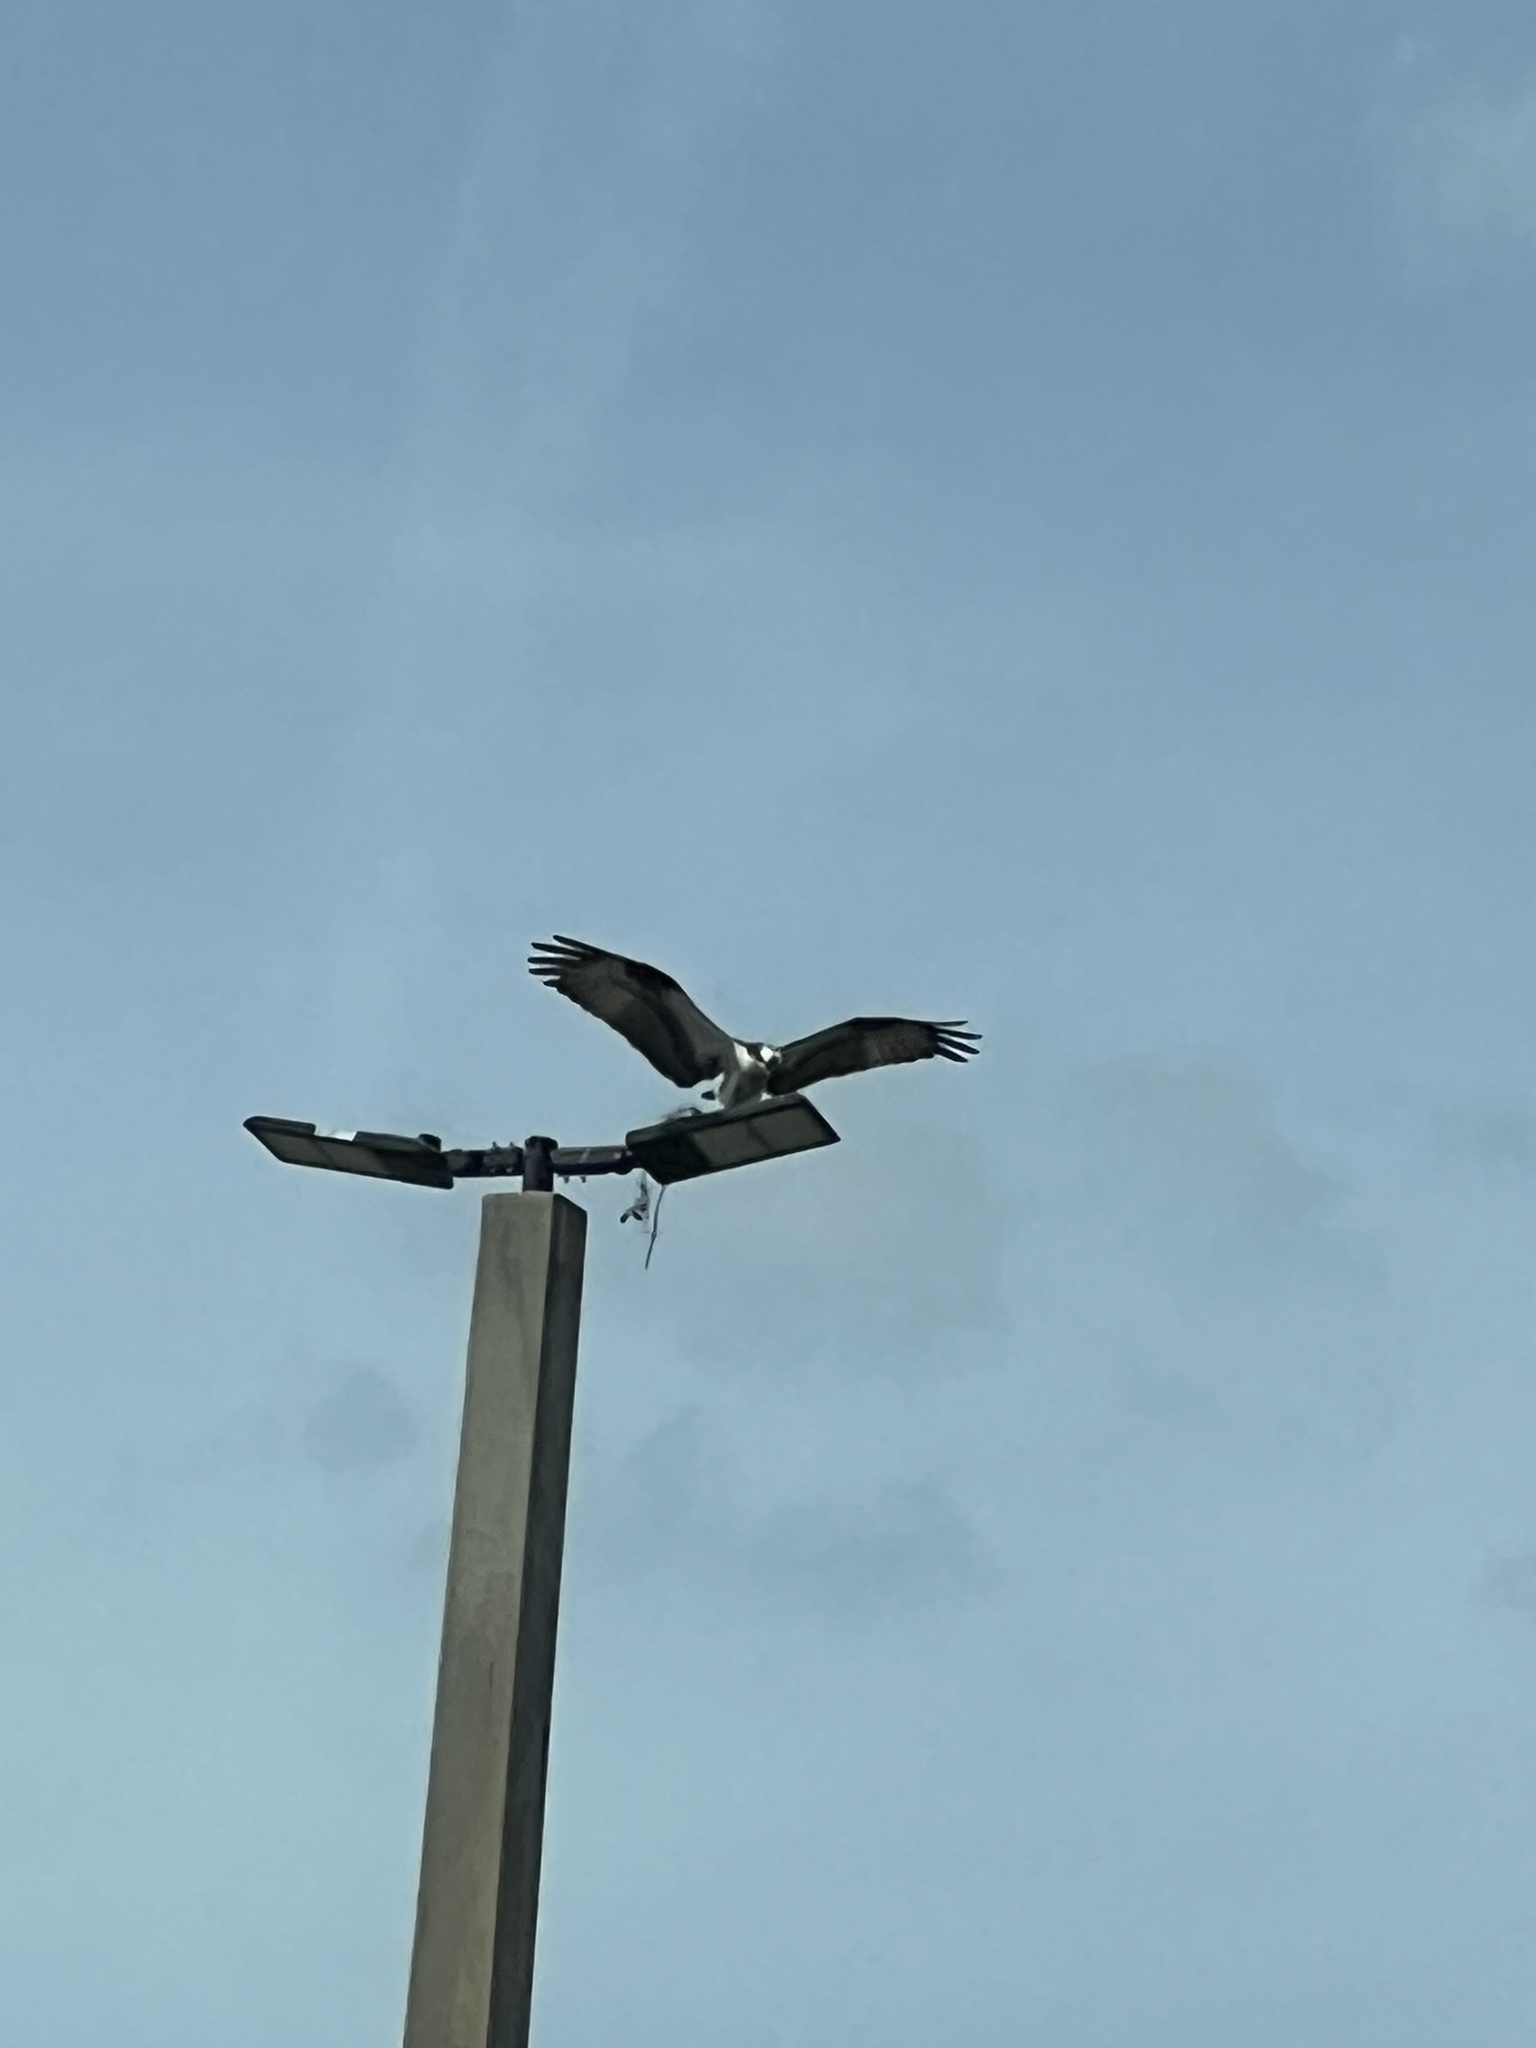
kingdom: Animalia
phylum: Chordata
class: Aves
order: Accipitriformes
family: Pandionidae
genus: Pandion
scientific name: Pandion haliaetus
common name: Osprey
